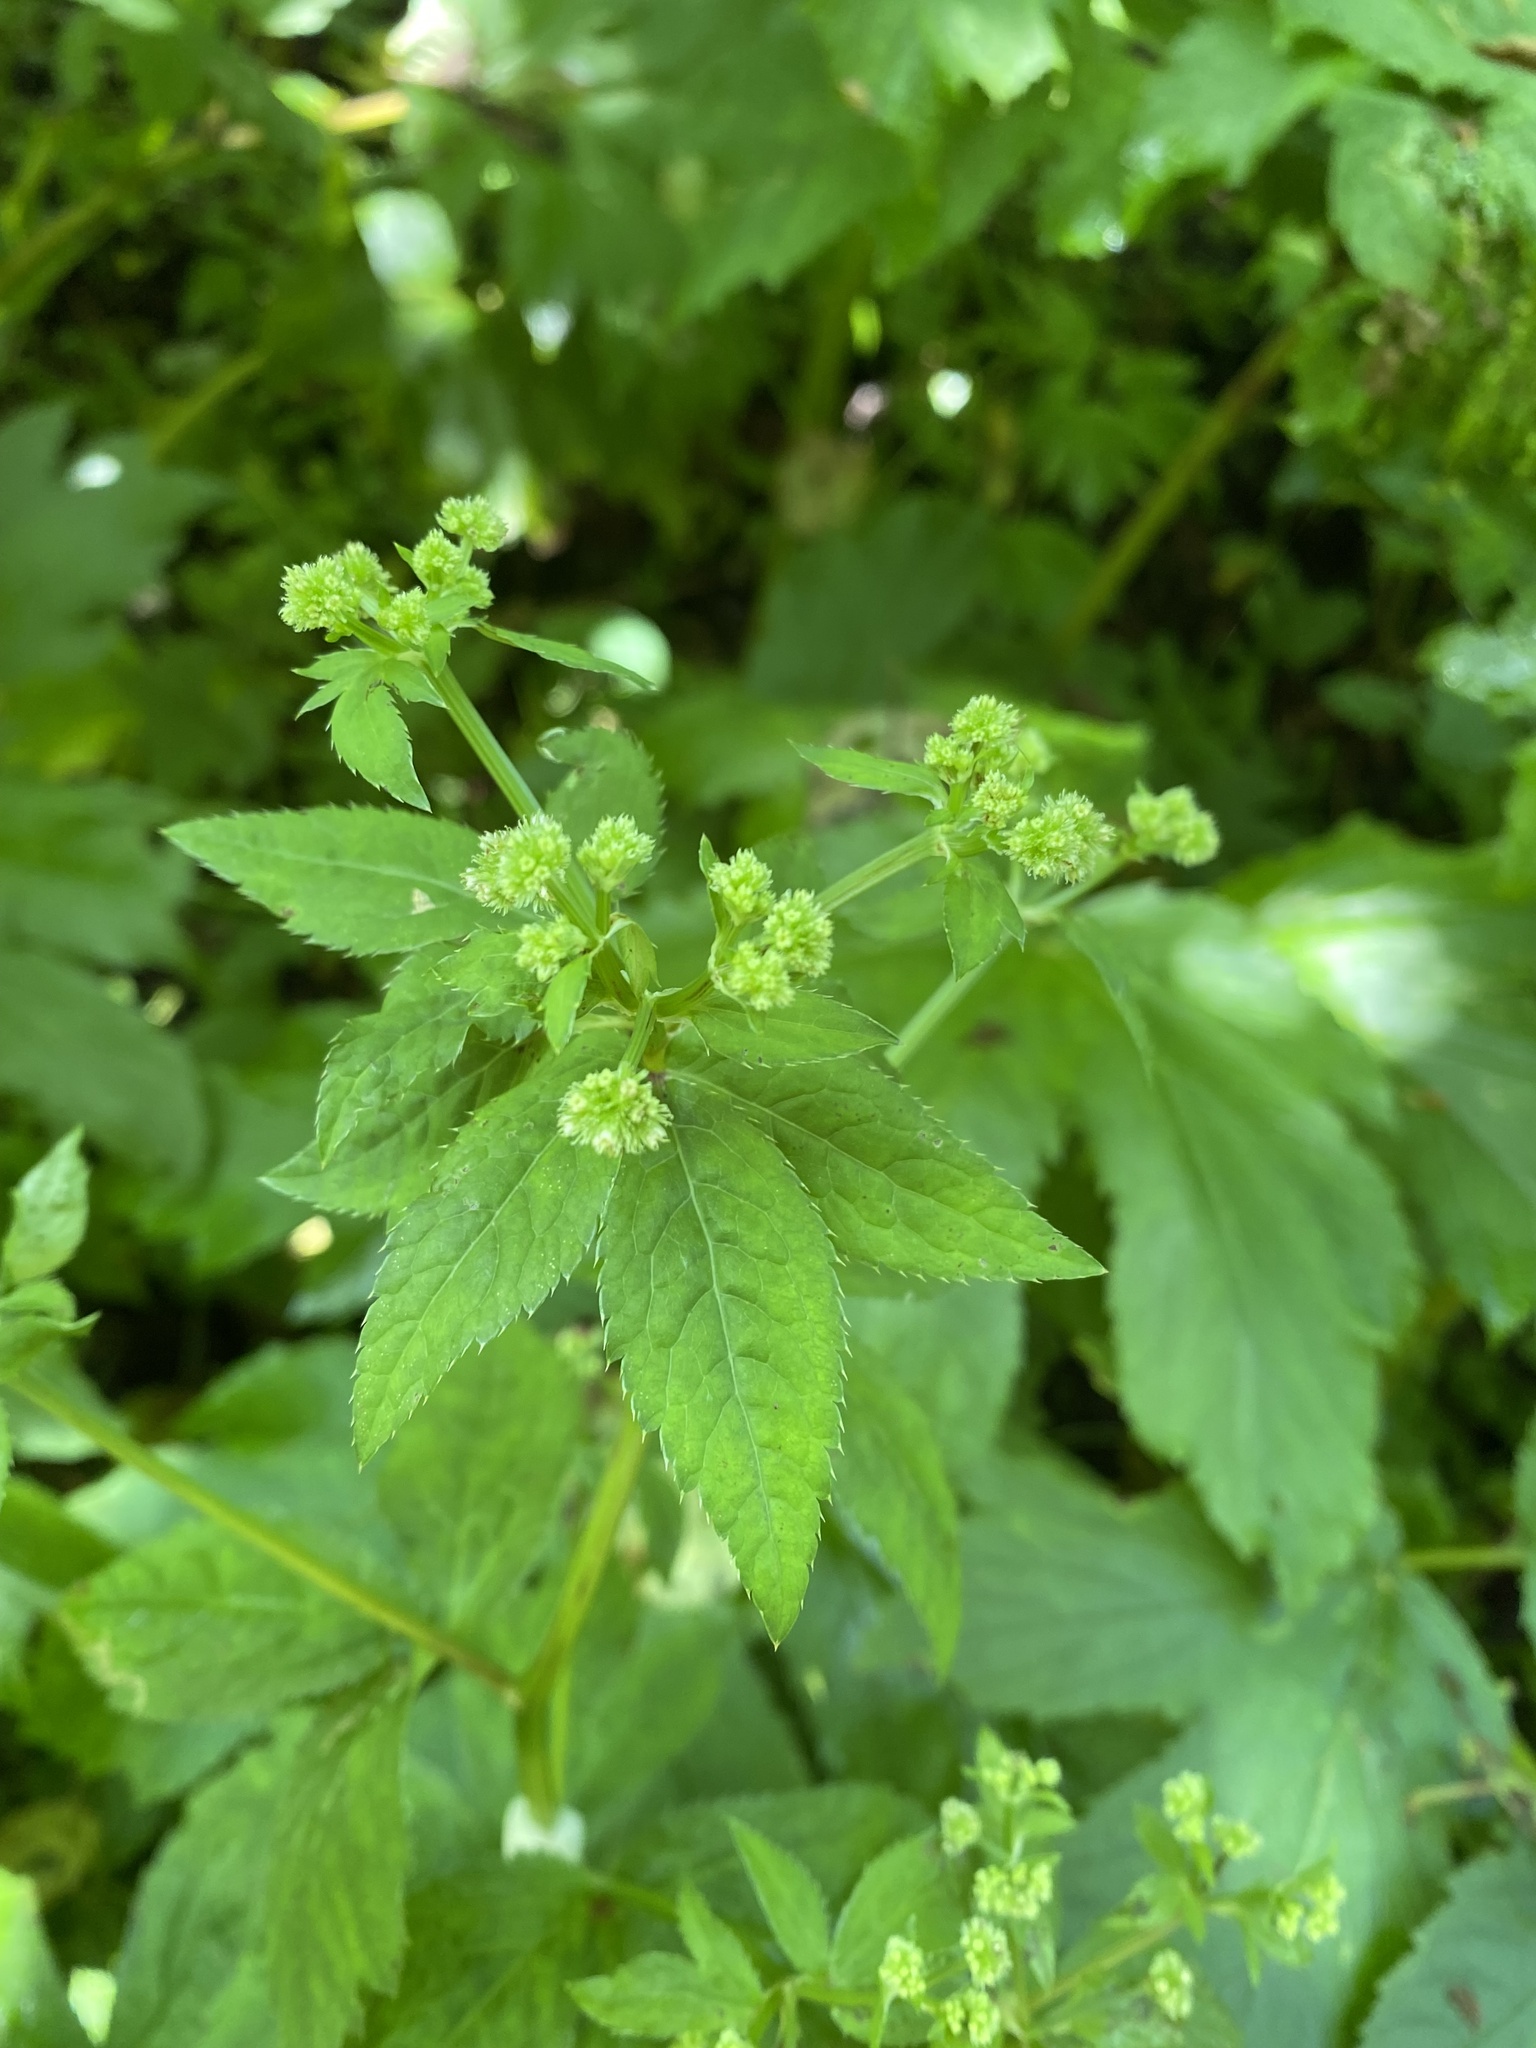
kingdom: Plantae
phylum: Tracheophyta
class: Magnoliopsida
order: Apiales
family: Apiaceae
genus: Sanicula
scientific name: Sanicula chinensis
